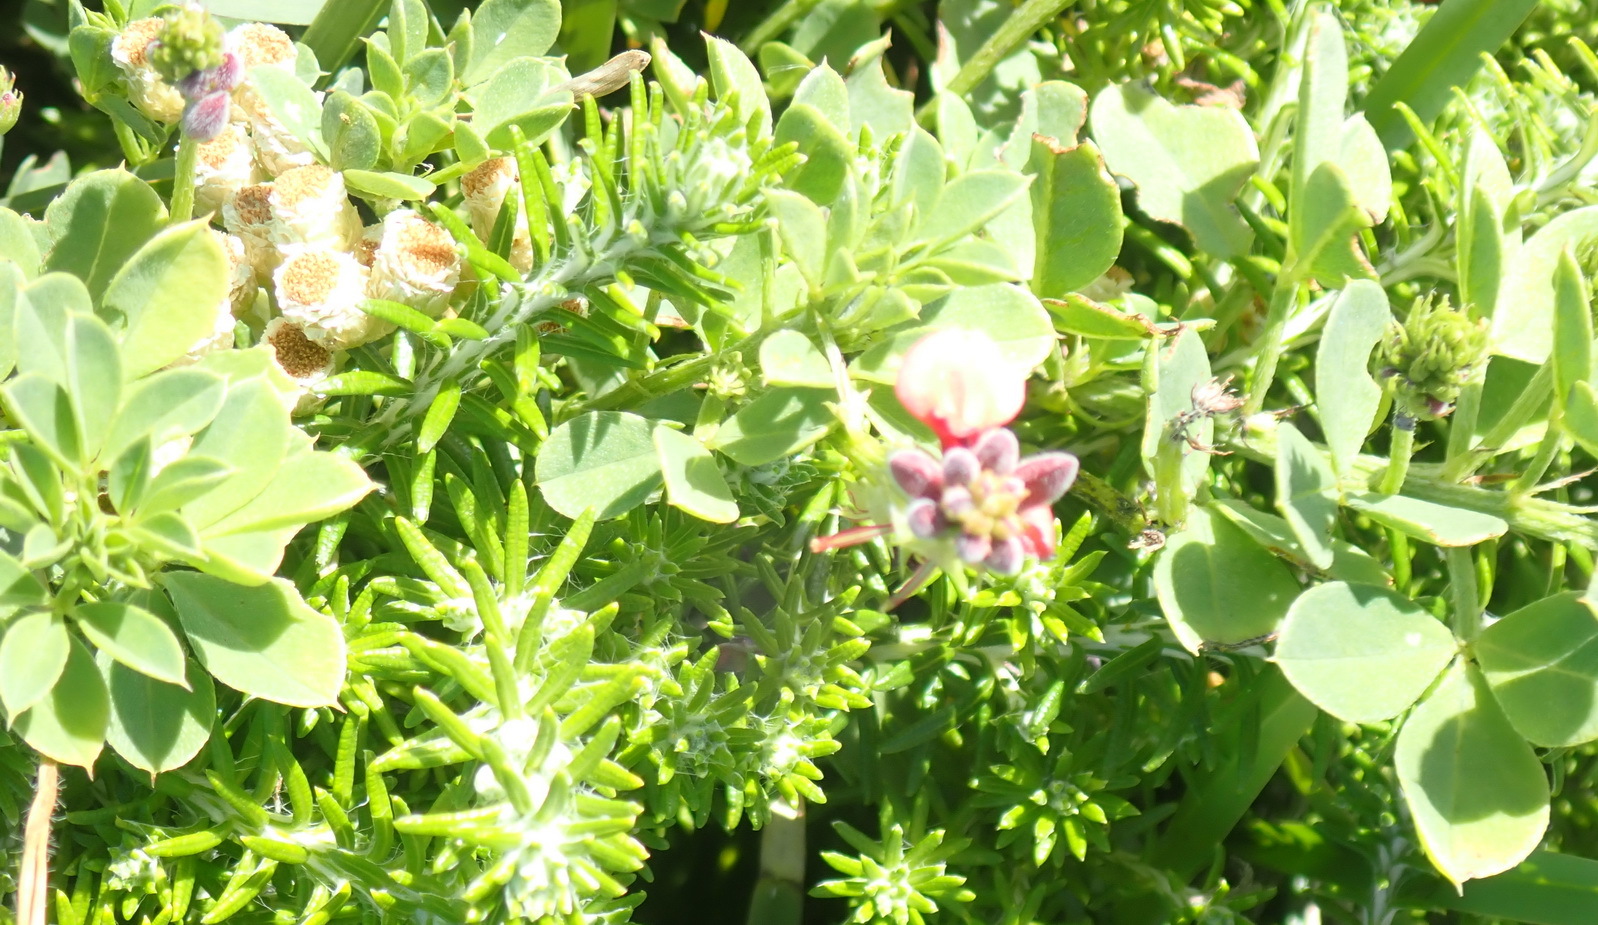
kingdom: Plantae
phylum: Tracheophyta
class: Magnoliopsida
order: Fabales
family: Fabaceae
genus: Indigofera
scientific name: Indigofera heterophylla
